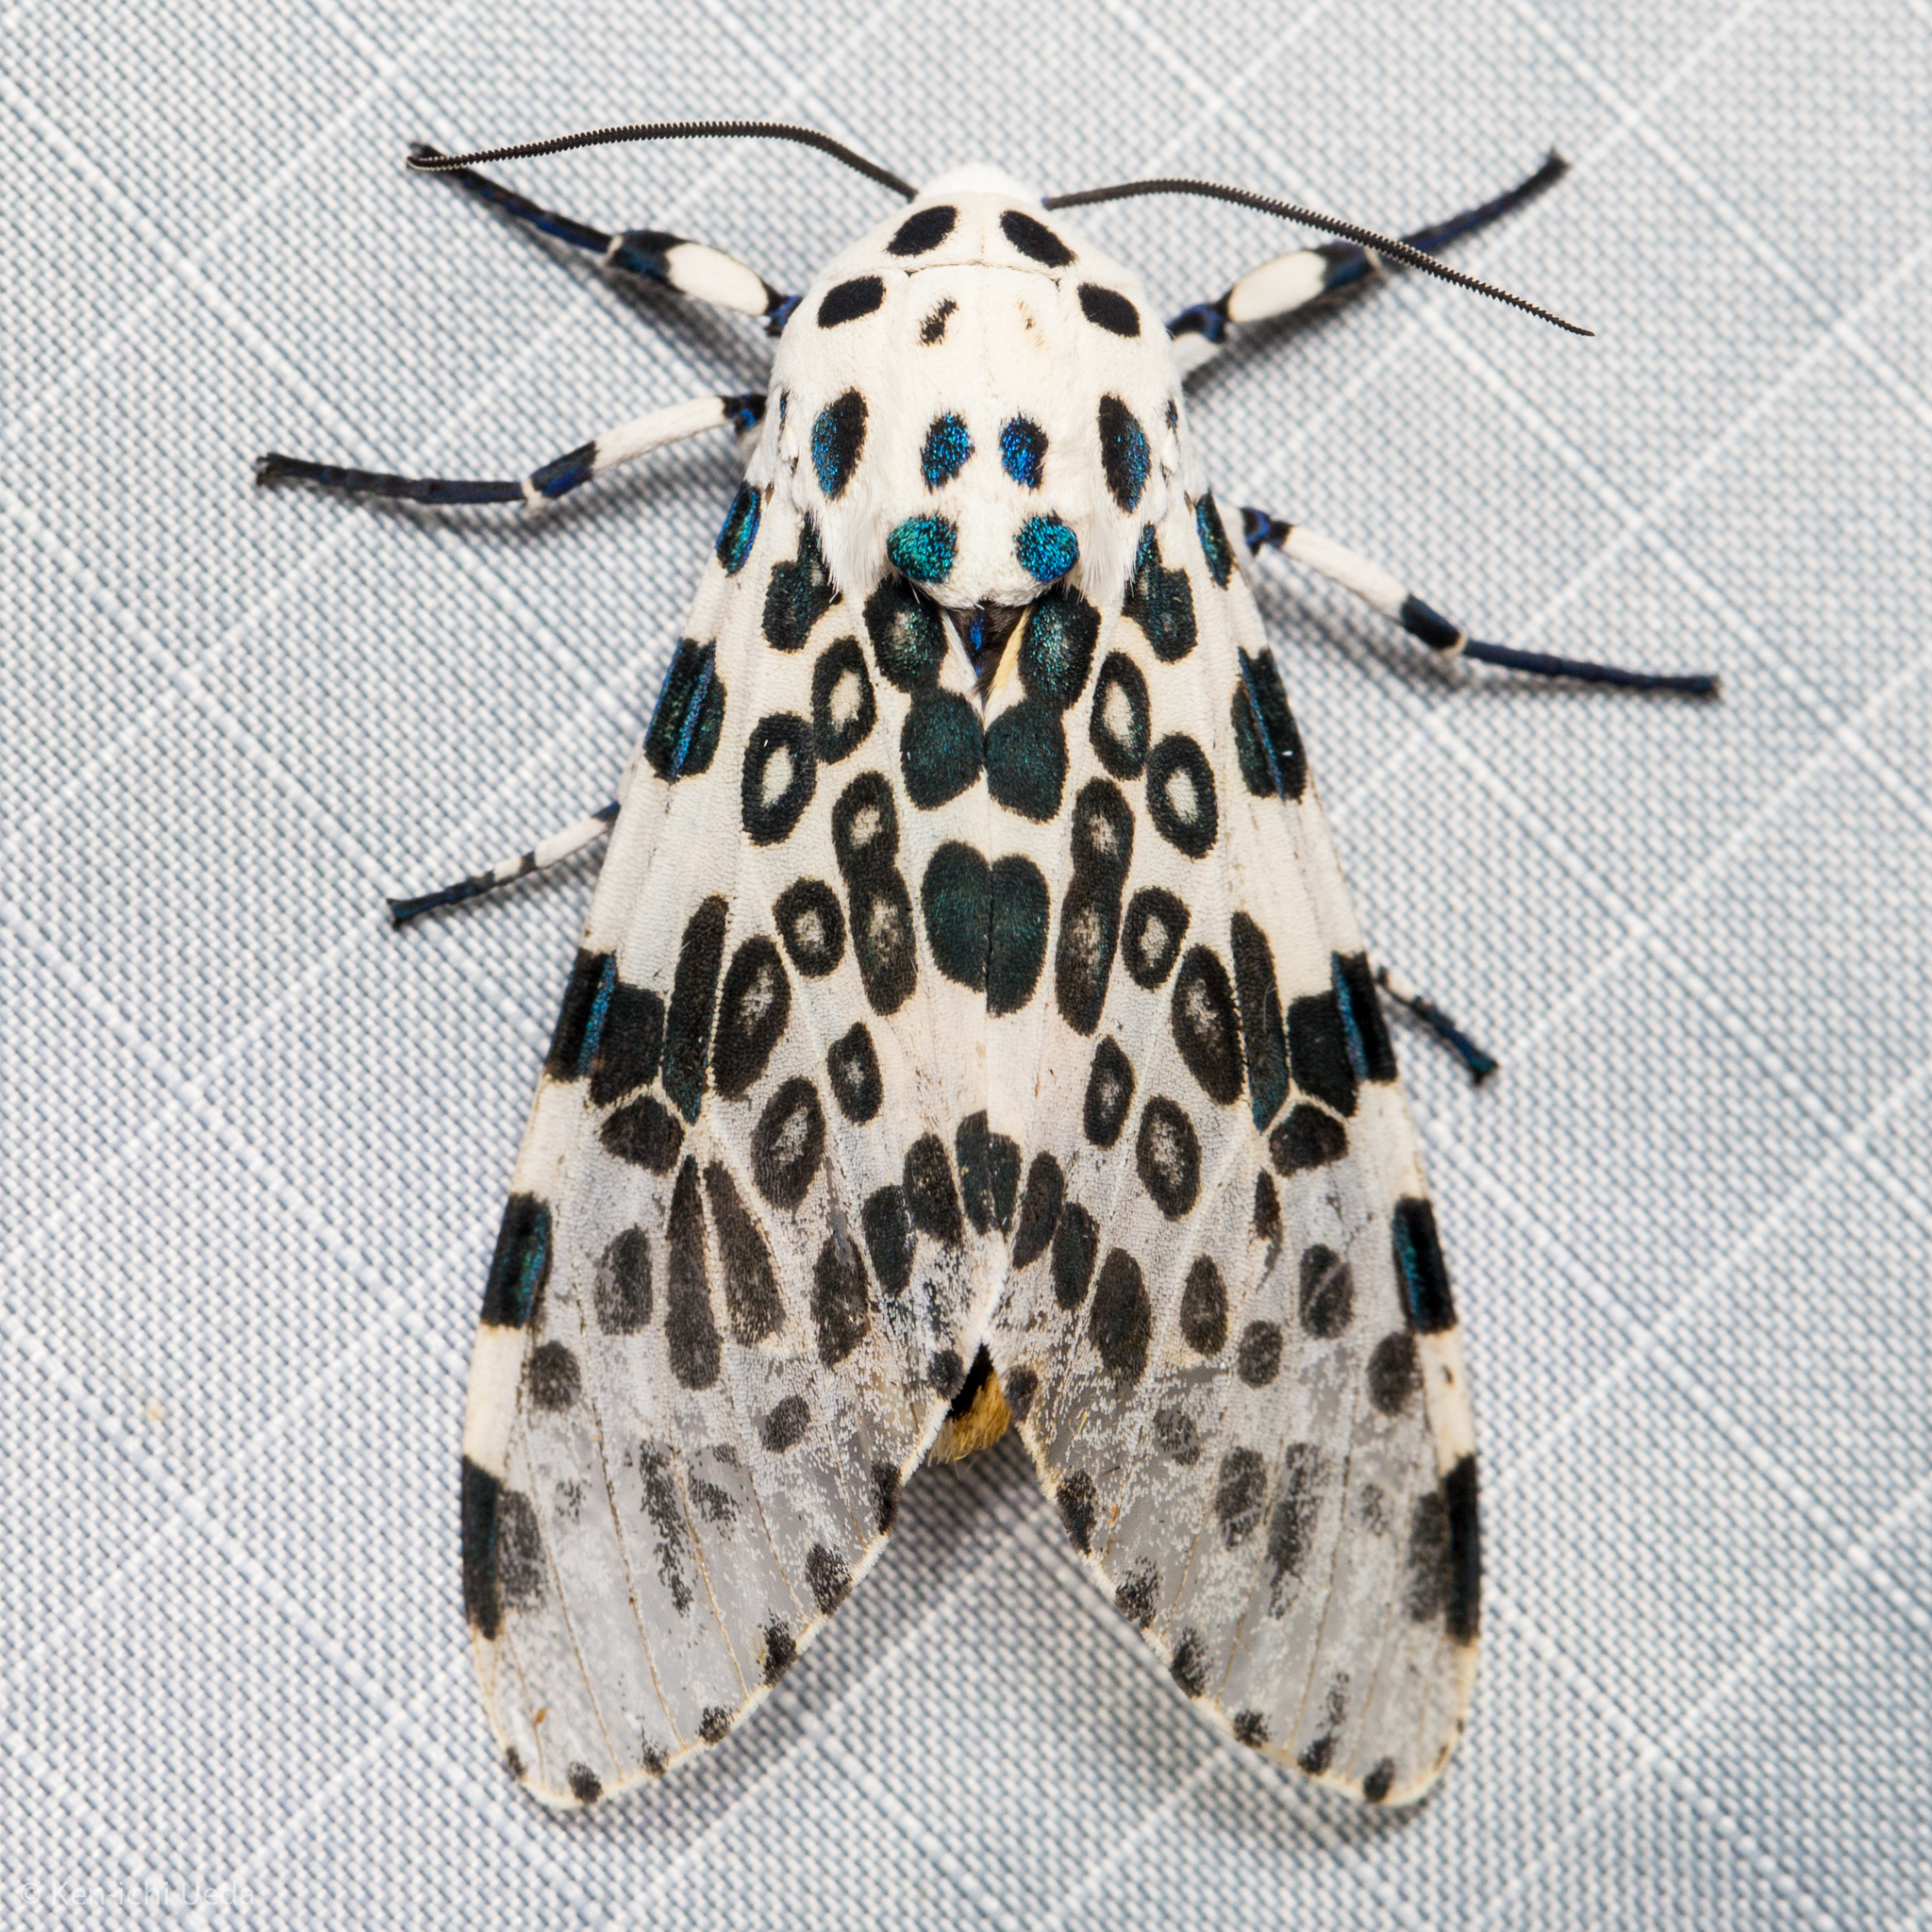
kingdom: Animalia
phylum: Arthropoda
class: Insecta
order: Lepidoptera
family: Erebidae
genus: Hypercompe
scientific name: Hypercompe scribonia
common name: Giant leopard moth
